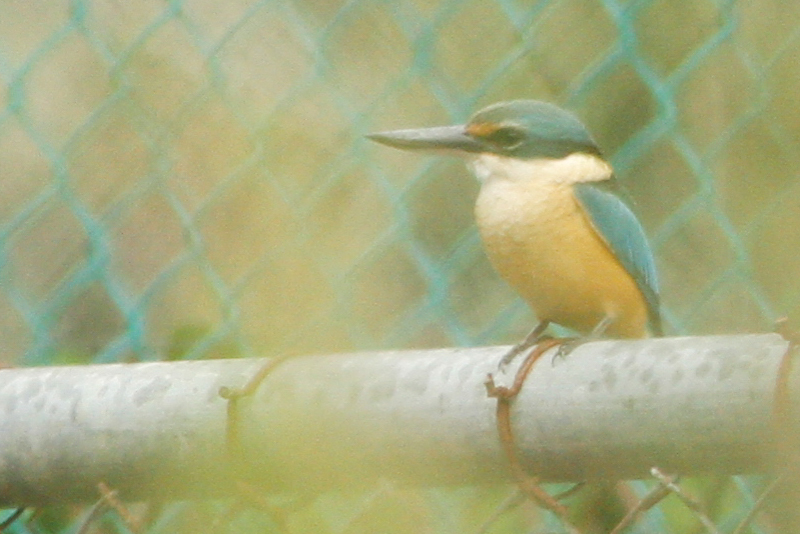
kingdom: Animalia
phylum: Chordata
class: Aves
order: Coraciiformes
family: Alcedinidae
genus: Todiramphus
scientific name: Todiramphus sanctus
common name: Sacred kingfisher
